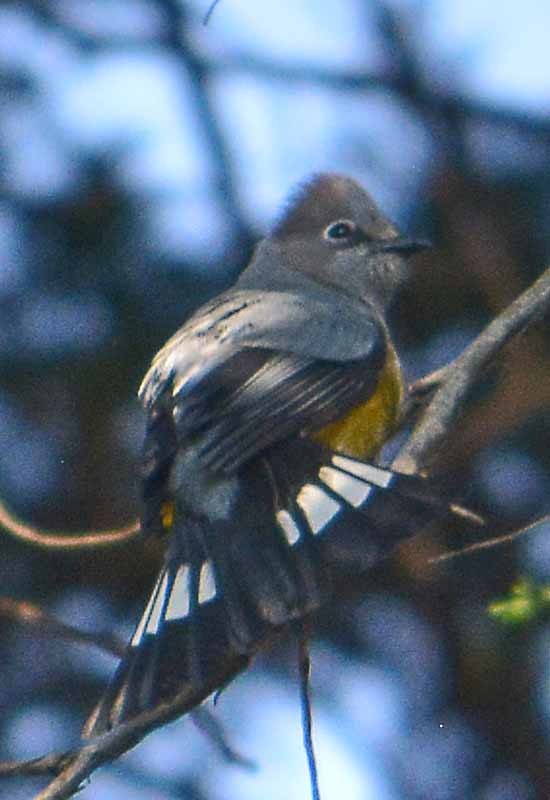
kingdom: Animalia
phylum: Chordata
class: Aves
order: Passeriformes
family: Ptilogonatidae
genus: Ptilogonys
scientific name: Ptilogonys cinereus
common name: Gray silky-flycatcher
